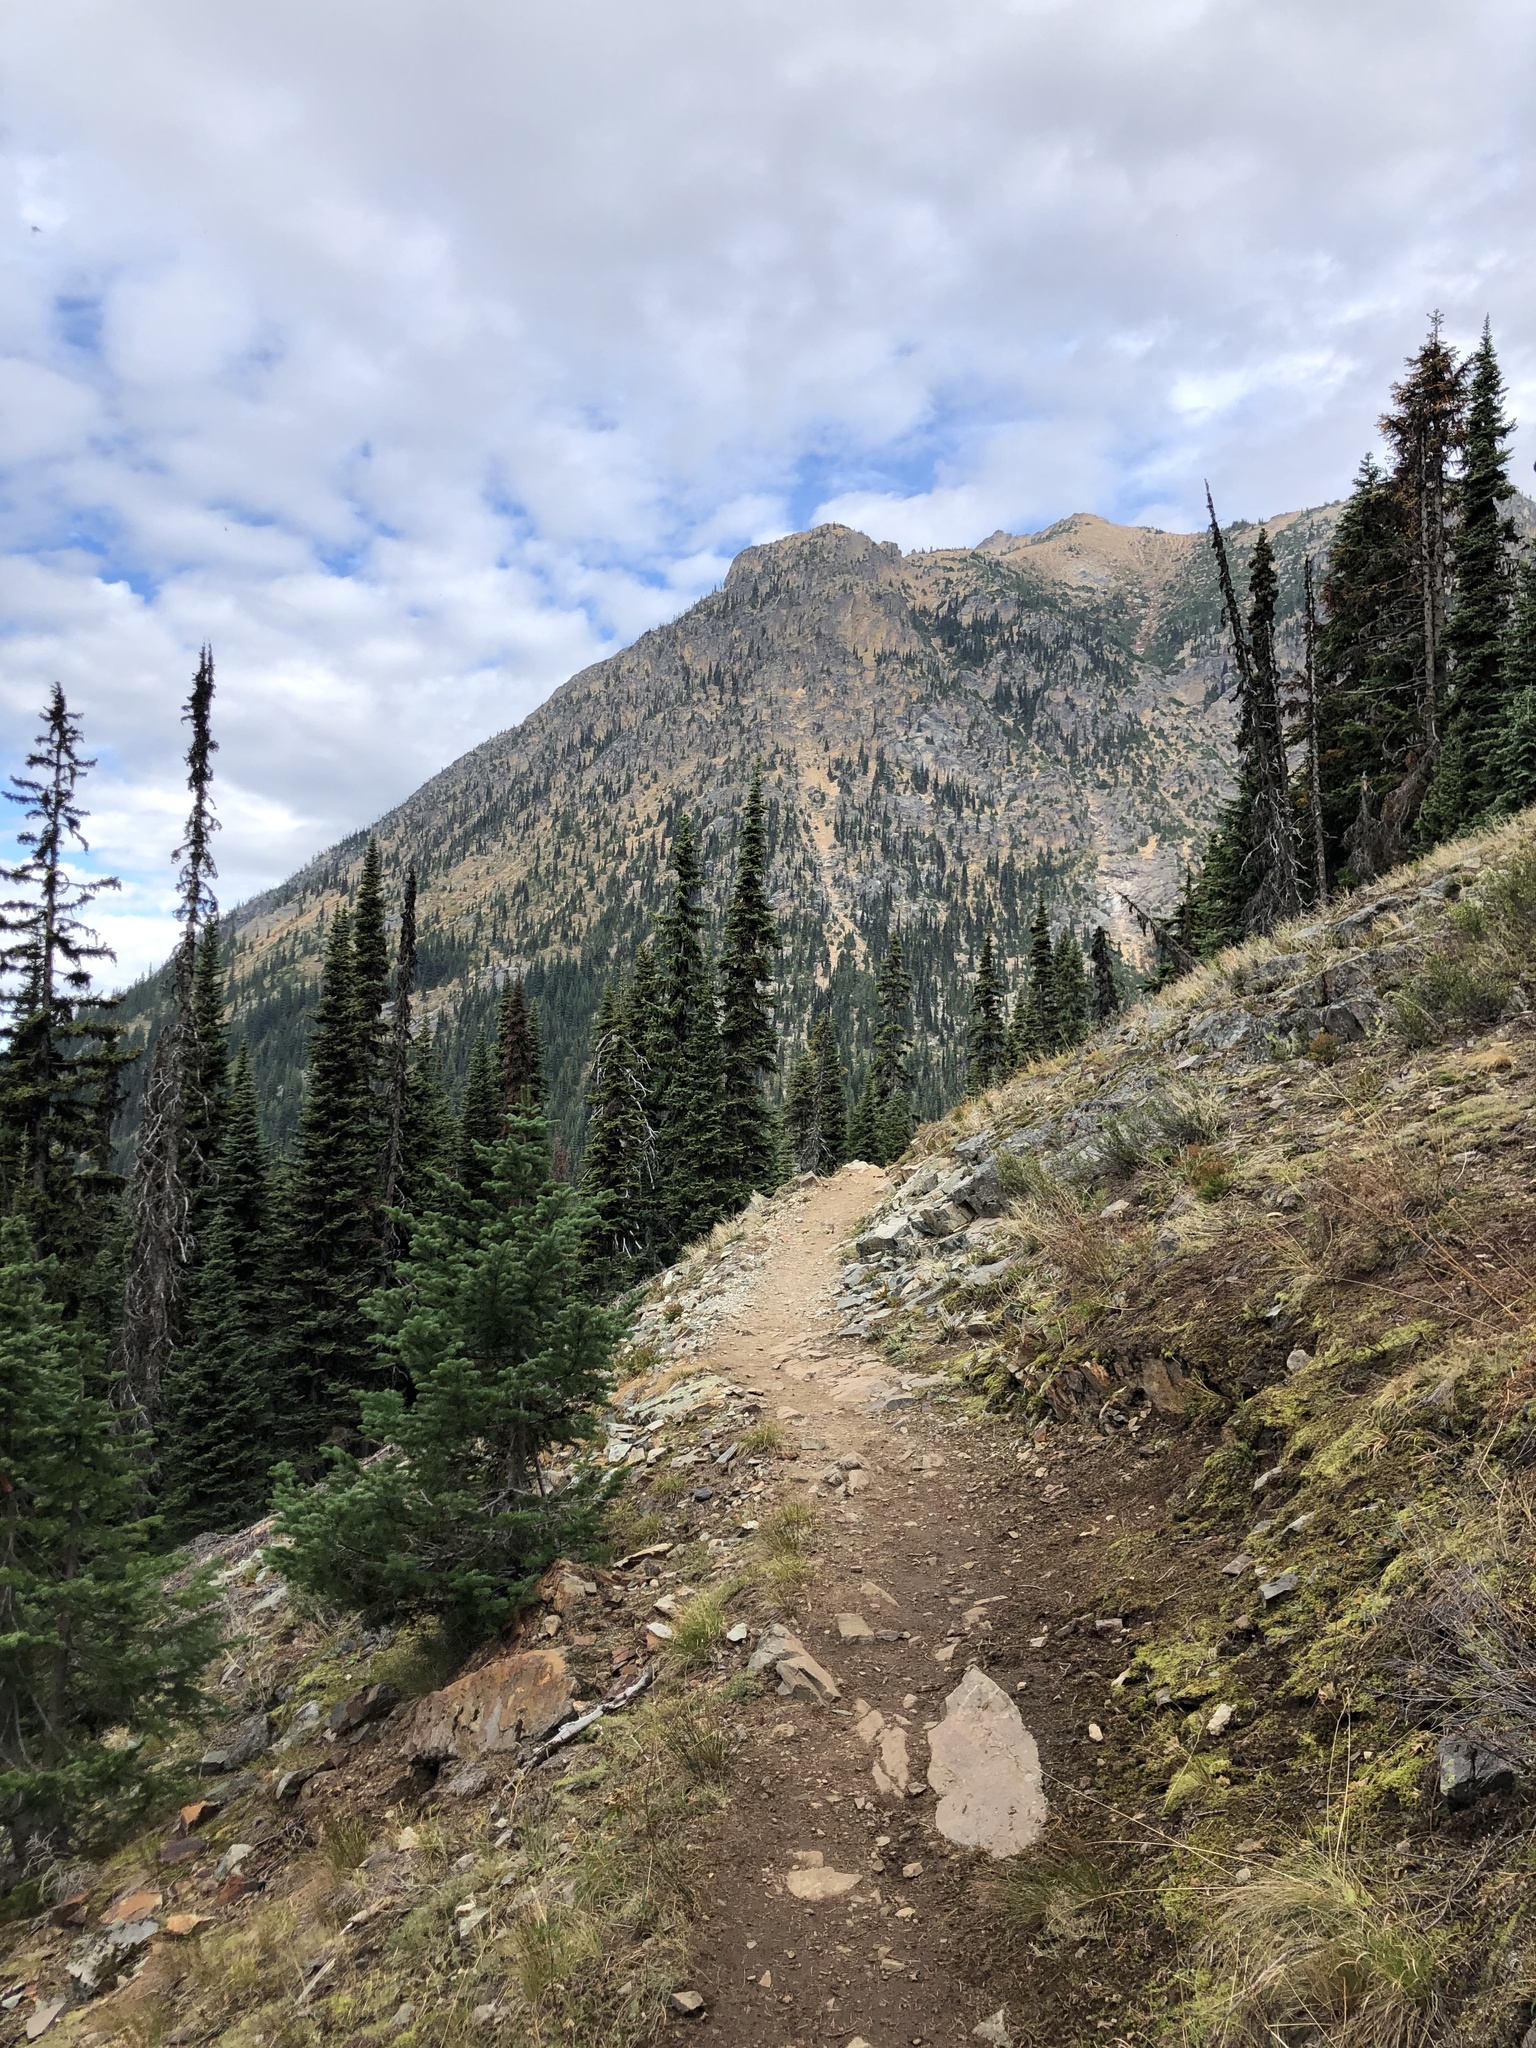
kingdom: Plantae
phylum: Tracheophyta
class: Pinopsida
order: Pinales
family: Pinaceae
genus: Abies
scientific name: Abies lasiocarpa
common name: Subalpine fir
